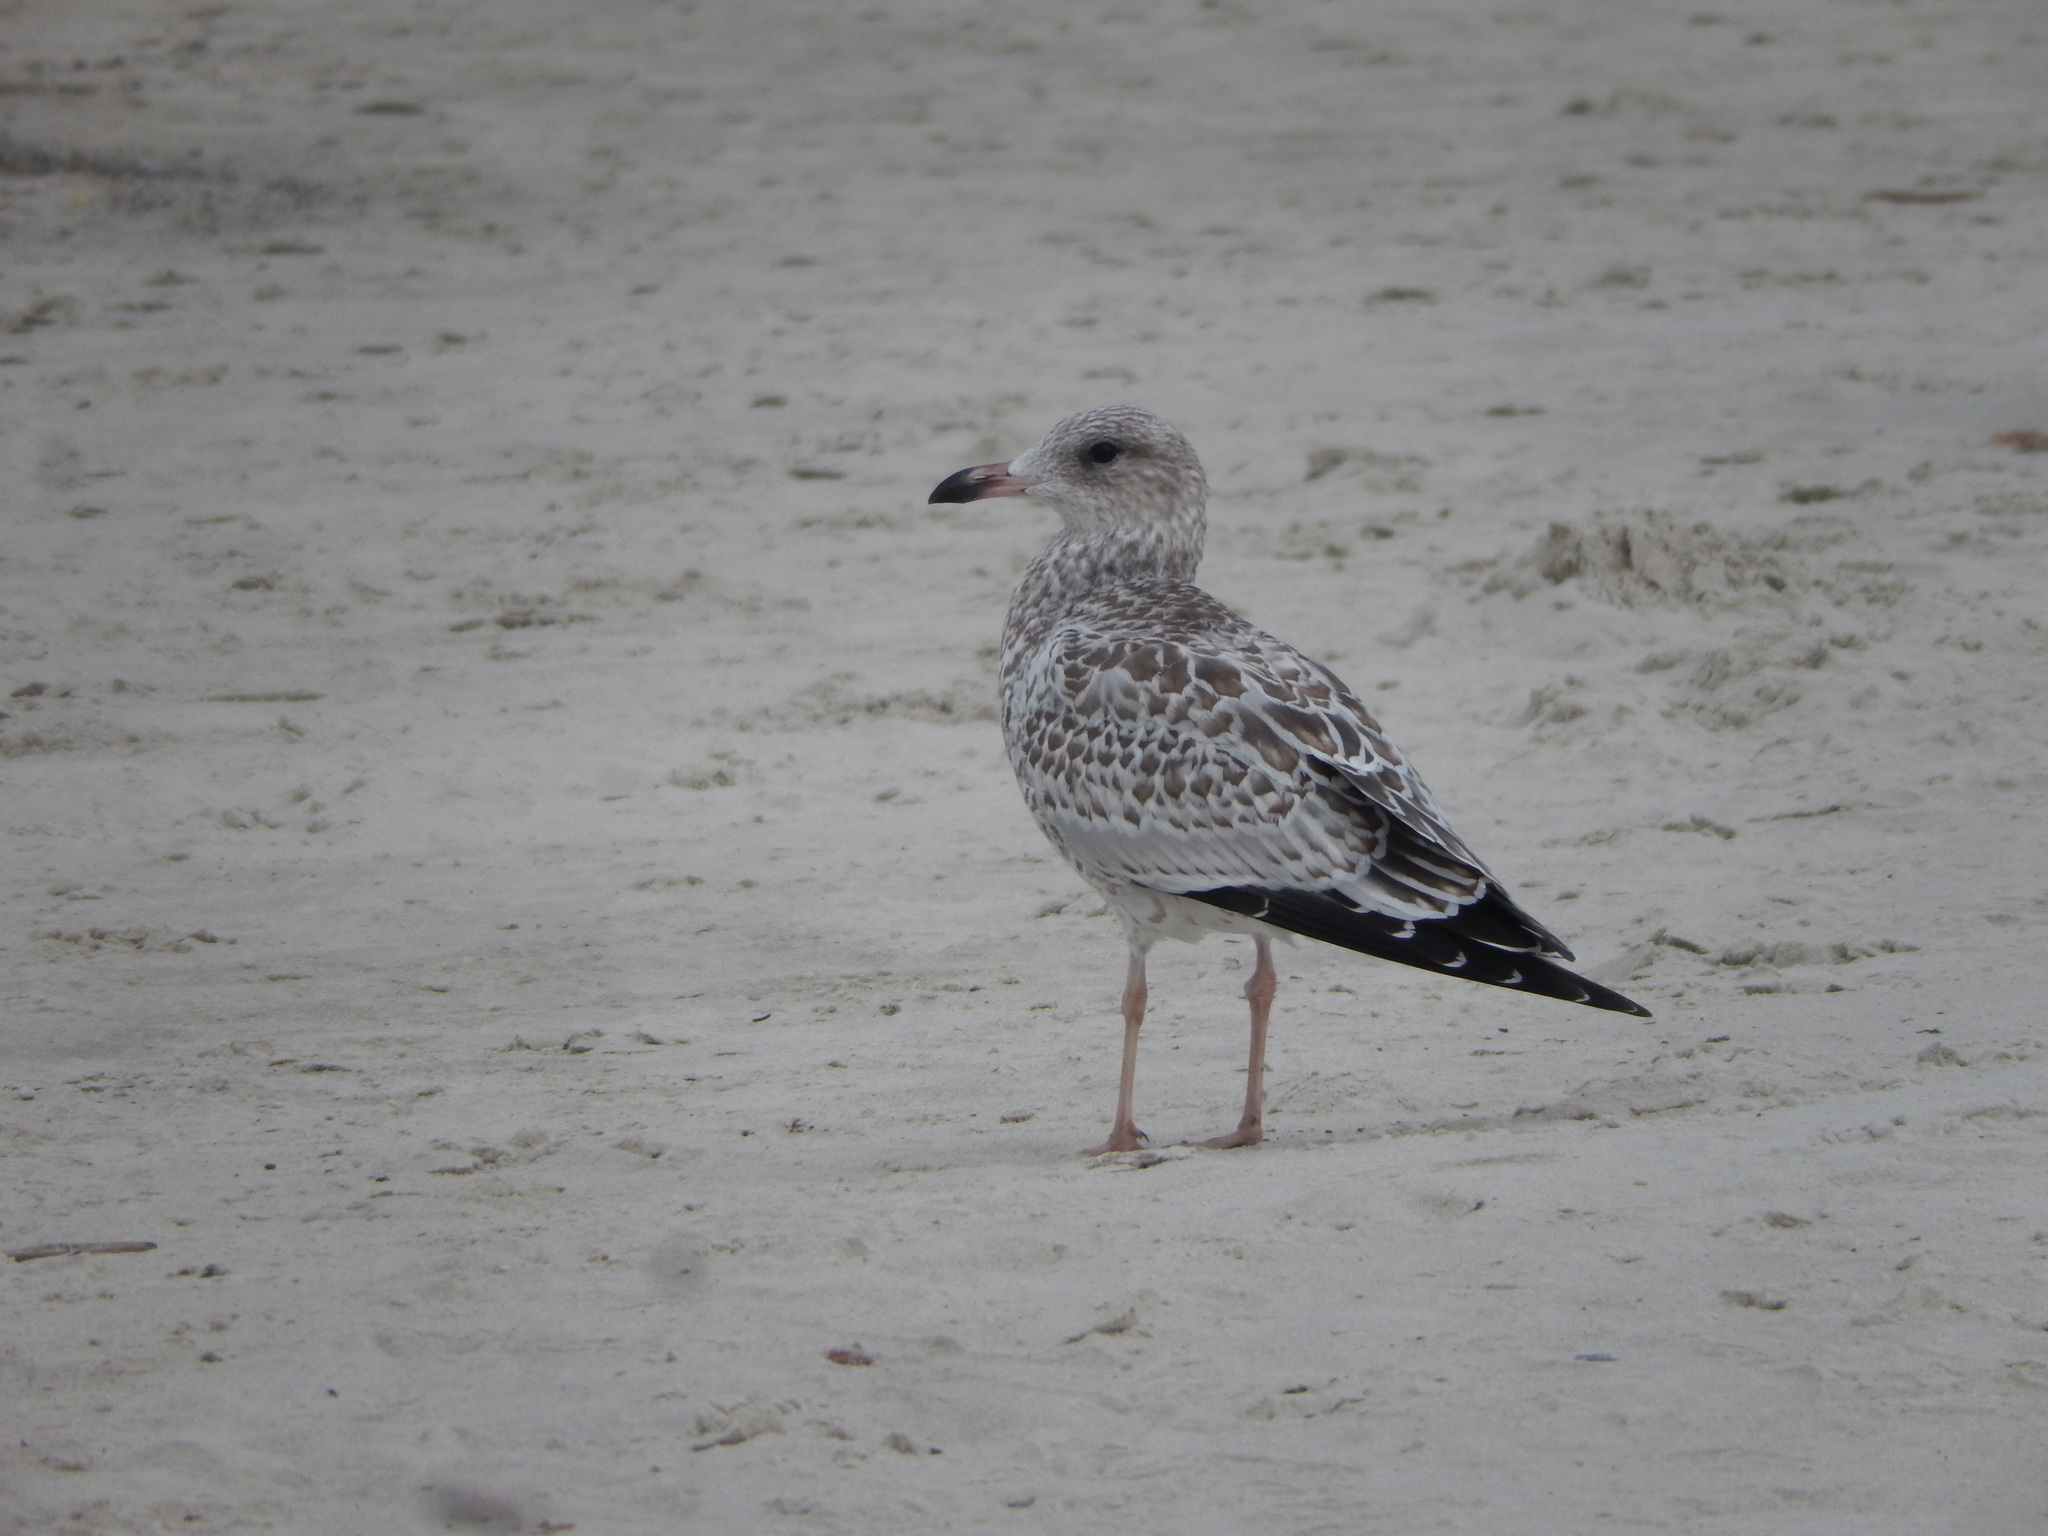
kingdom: Animalia
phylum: Chordata
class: Aves
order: Charadriiformes
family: Laridae
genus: Larus
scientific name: Larus delawarensis
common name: Ring-billed gull
